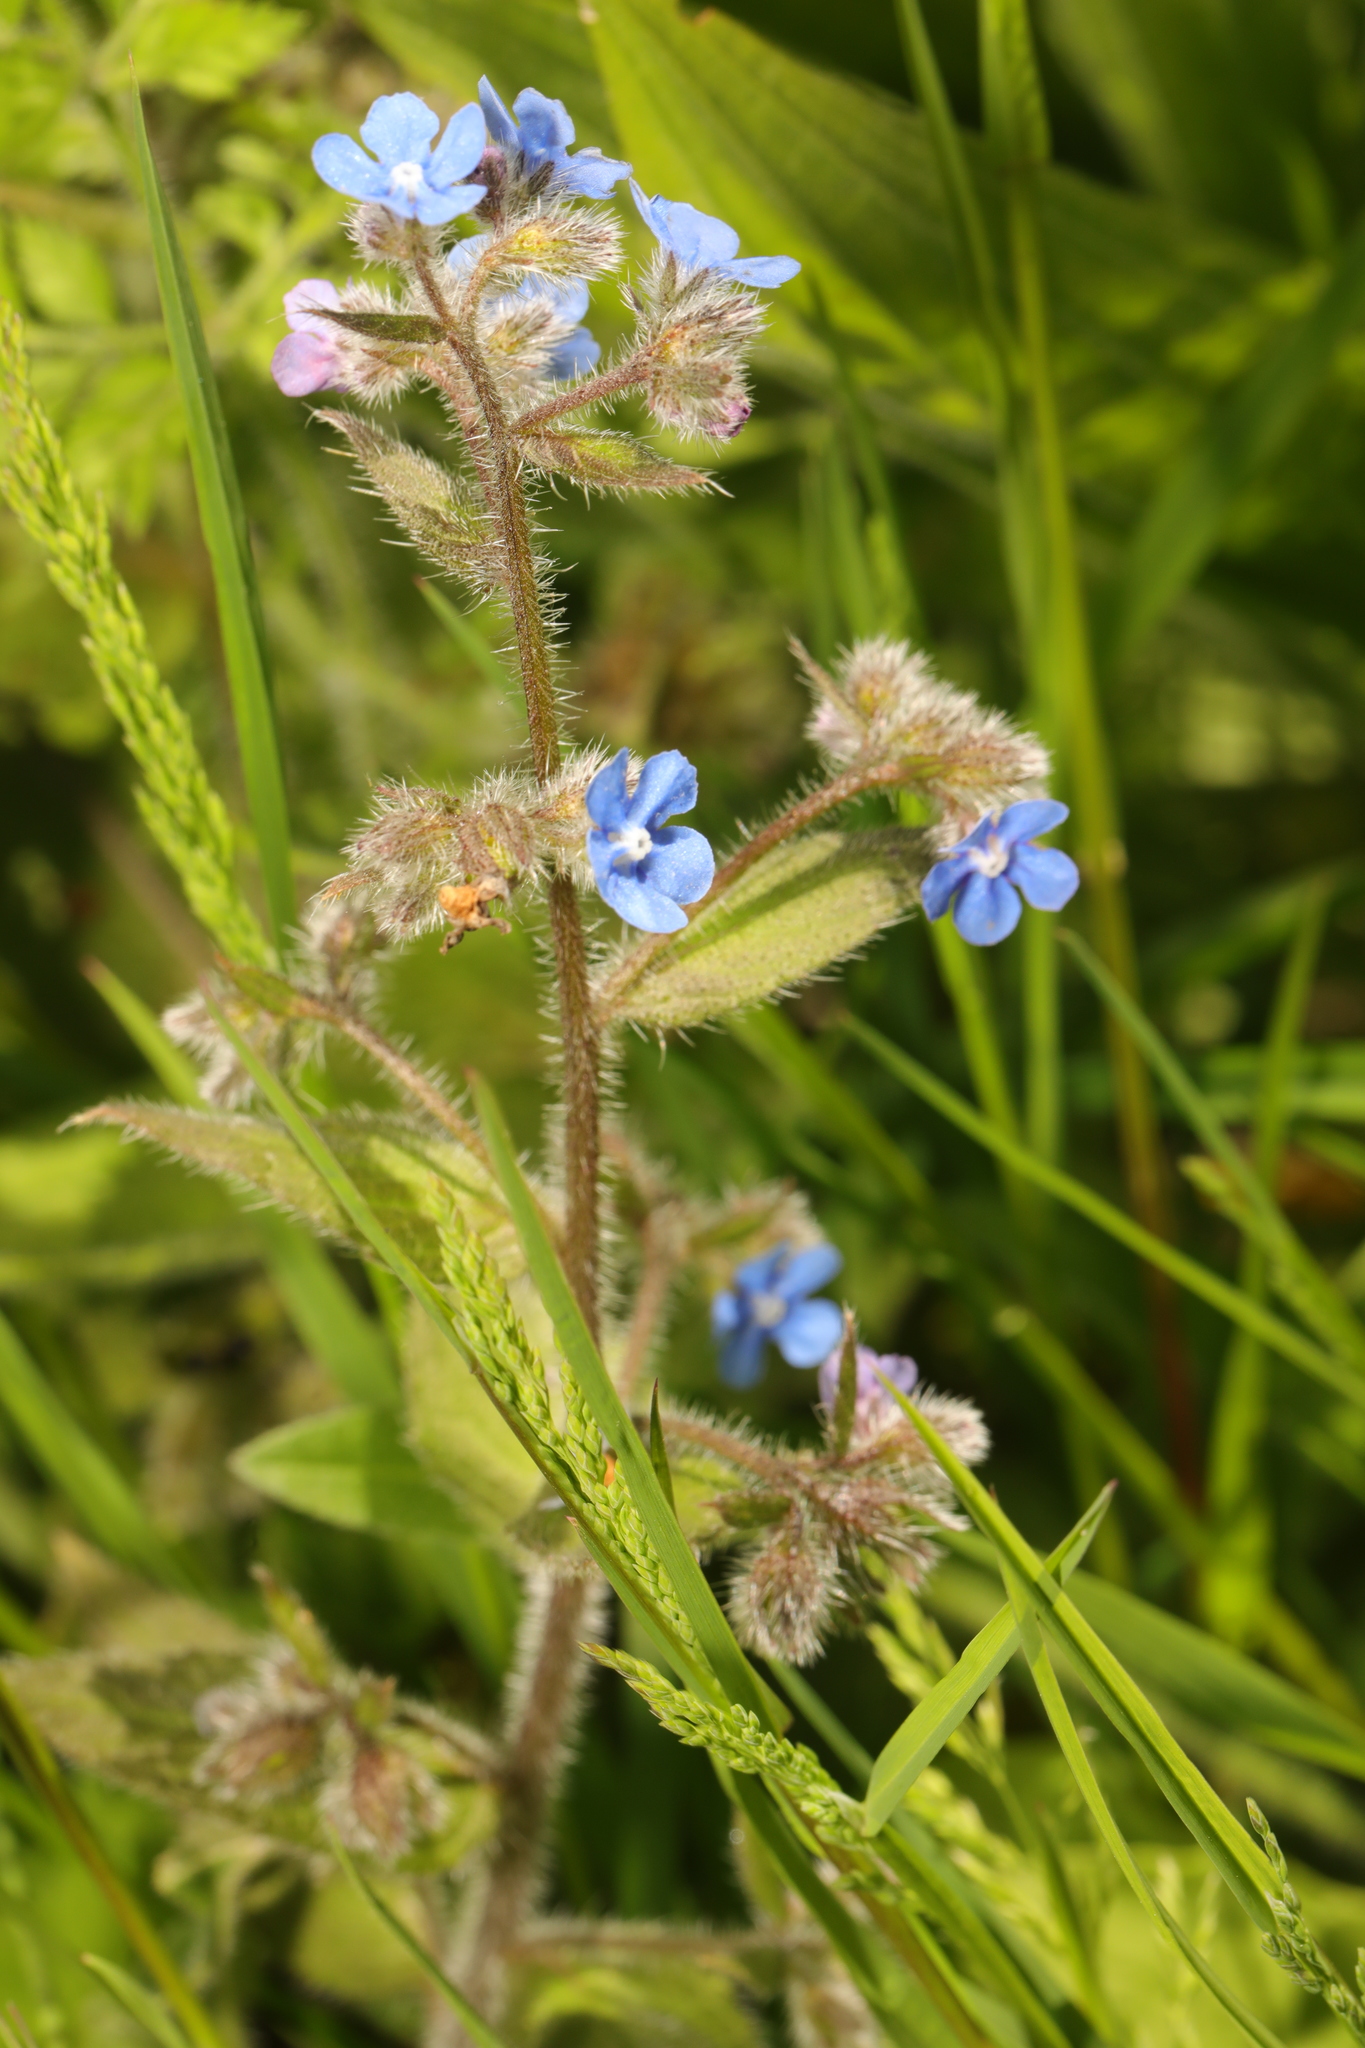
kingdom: Plantae
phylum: Tracheophyta
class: Magnoliopsida
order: Boraginales
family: Boraginaceae
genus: Pentaglottis
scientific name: Pentaglottis sempervirens
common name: Green alkanet
